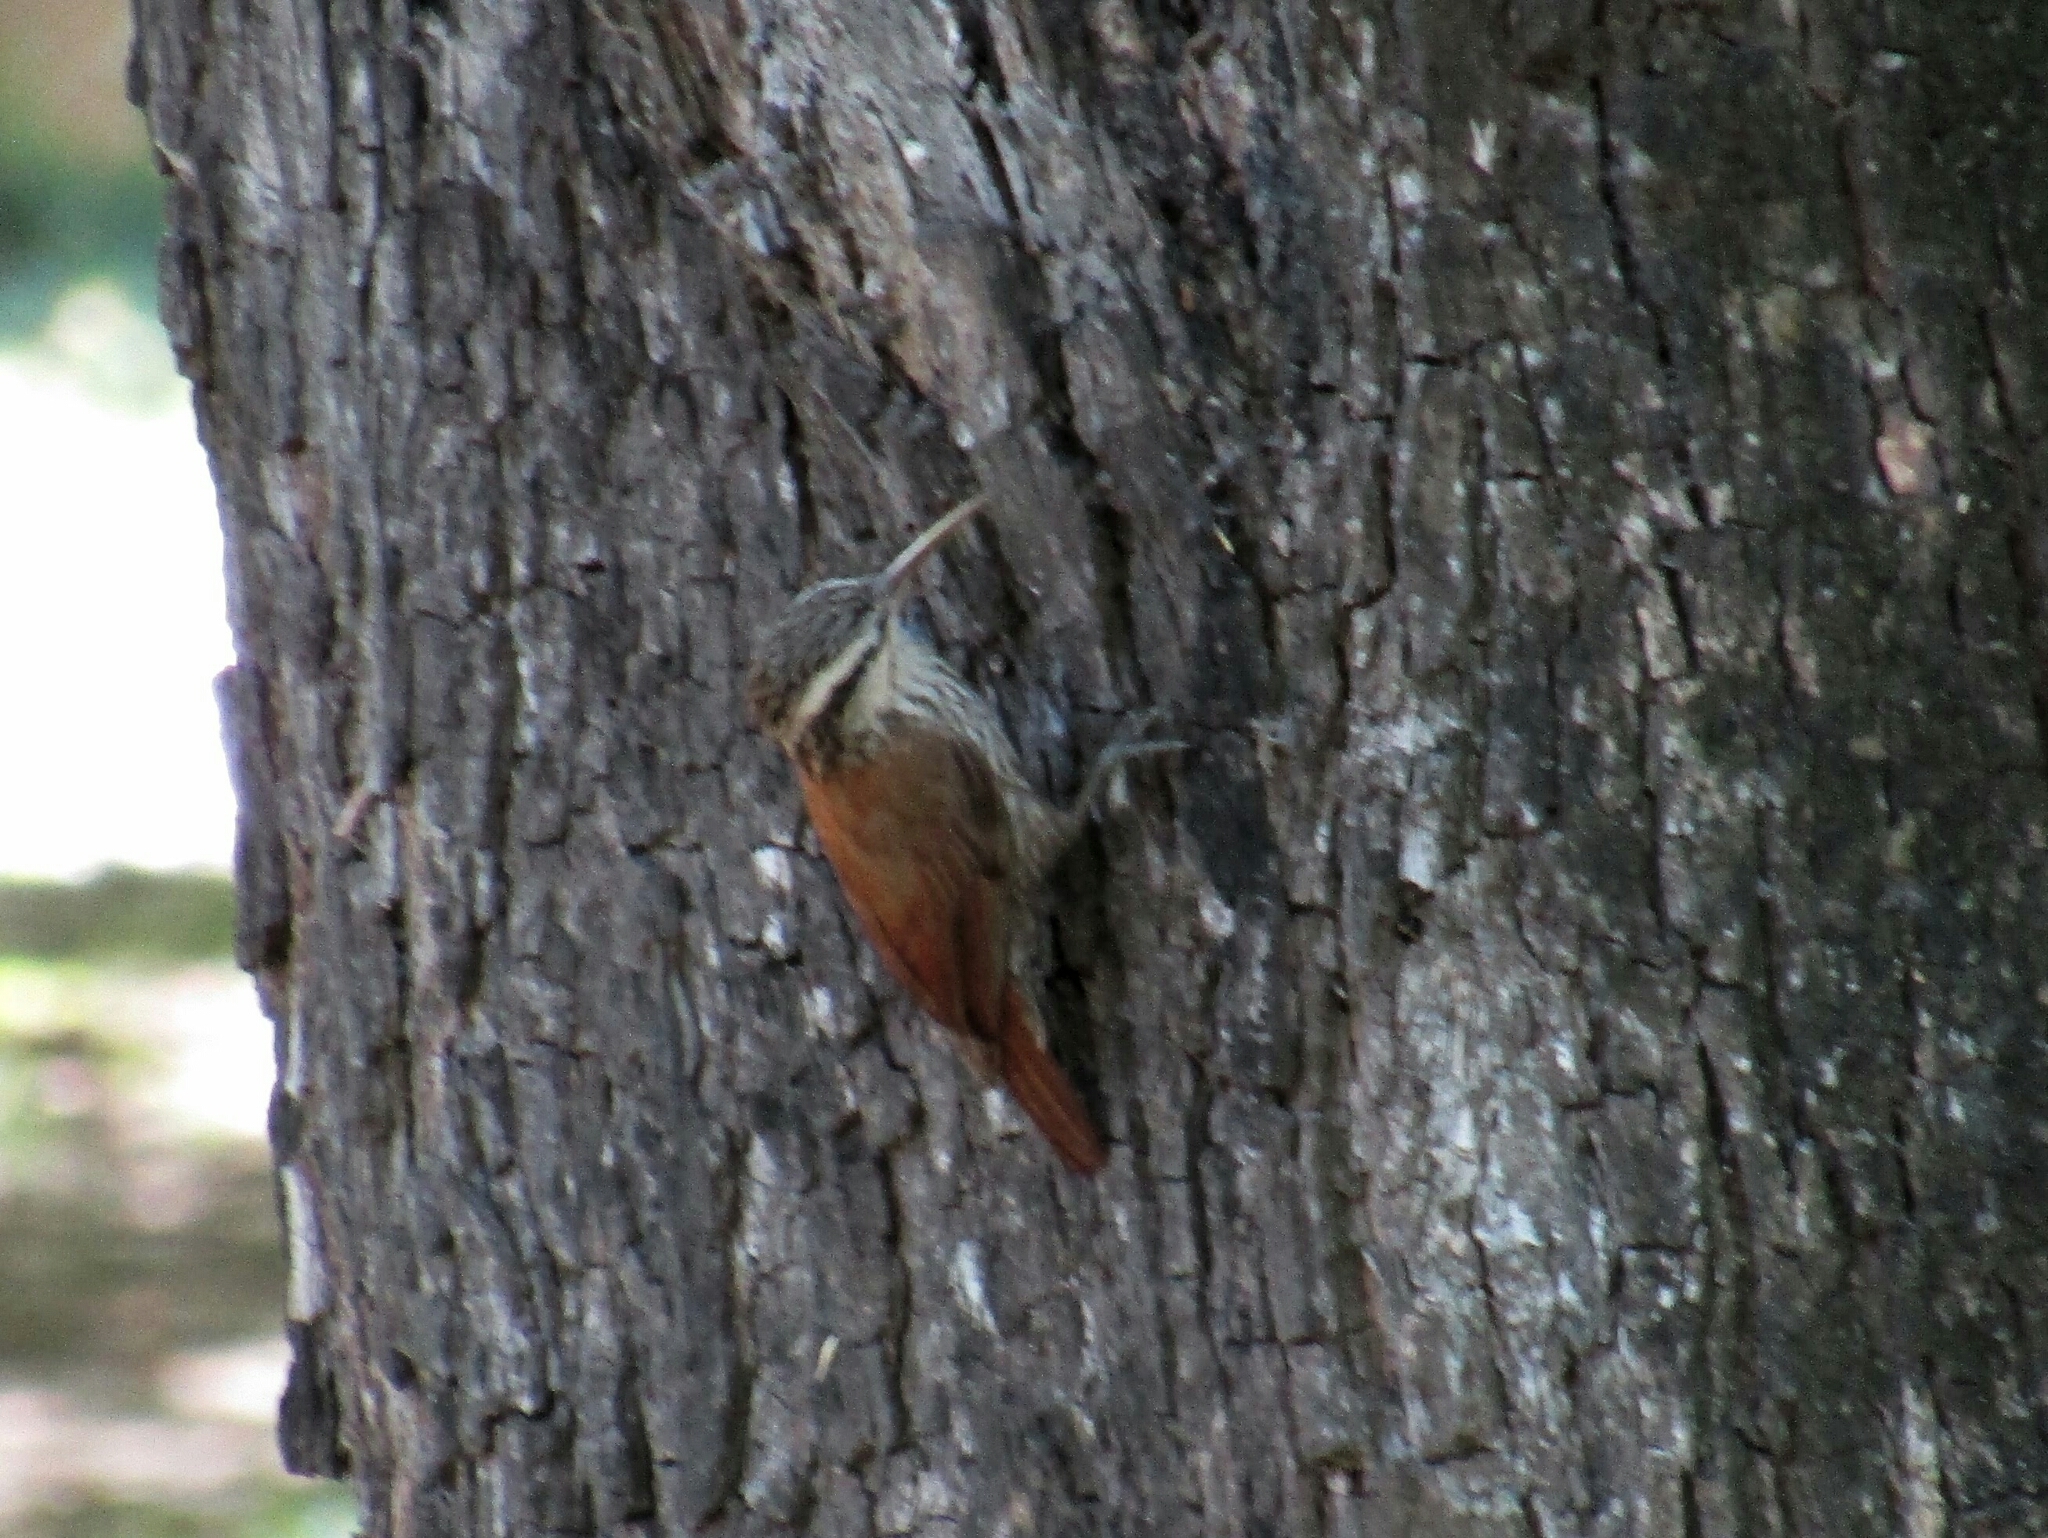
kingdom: Animalia
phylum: Chordata
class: Aves
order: Passeriformes
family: Furnariidae
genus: Lepidocolaptes
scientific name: Lepidocolaptes angustirostris
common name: Narrow-billed woodcreeper
